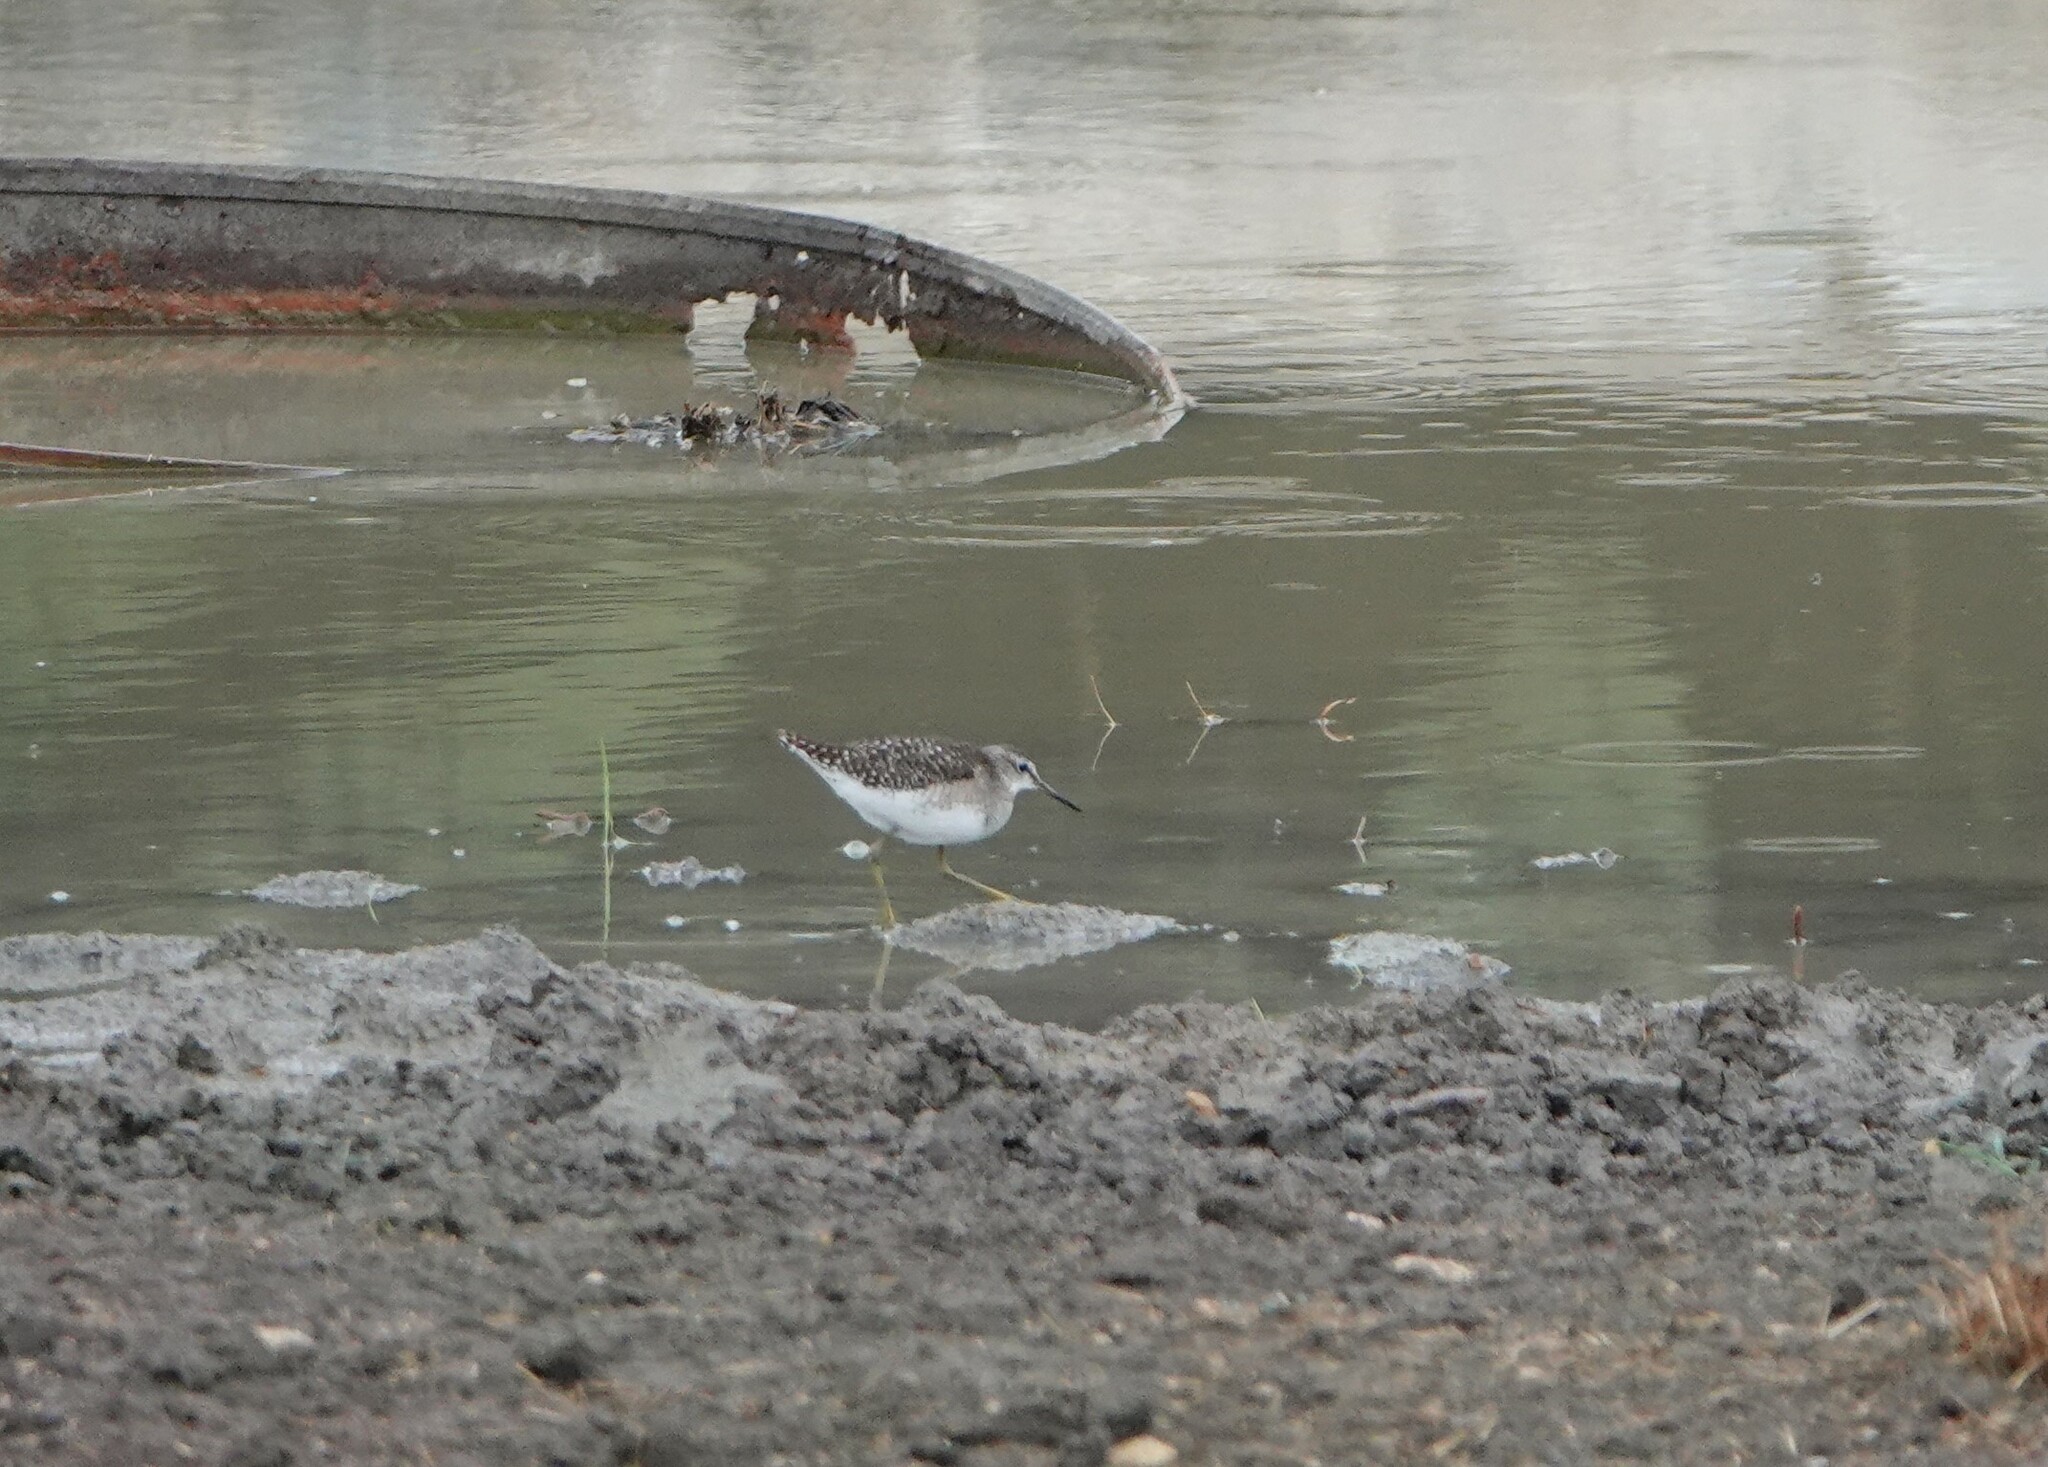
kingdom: Animalia
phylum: Chordata
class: Aves
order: Charadriiformes
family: Scolopacidae
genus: Tringa
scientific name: Tringa glareola
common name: Wood sandpiper
